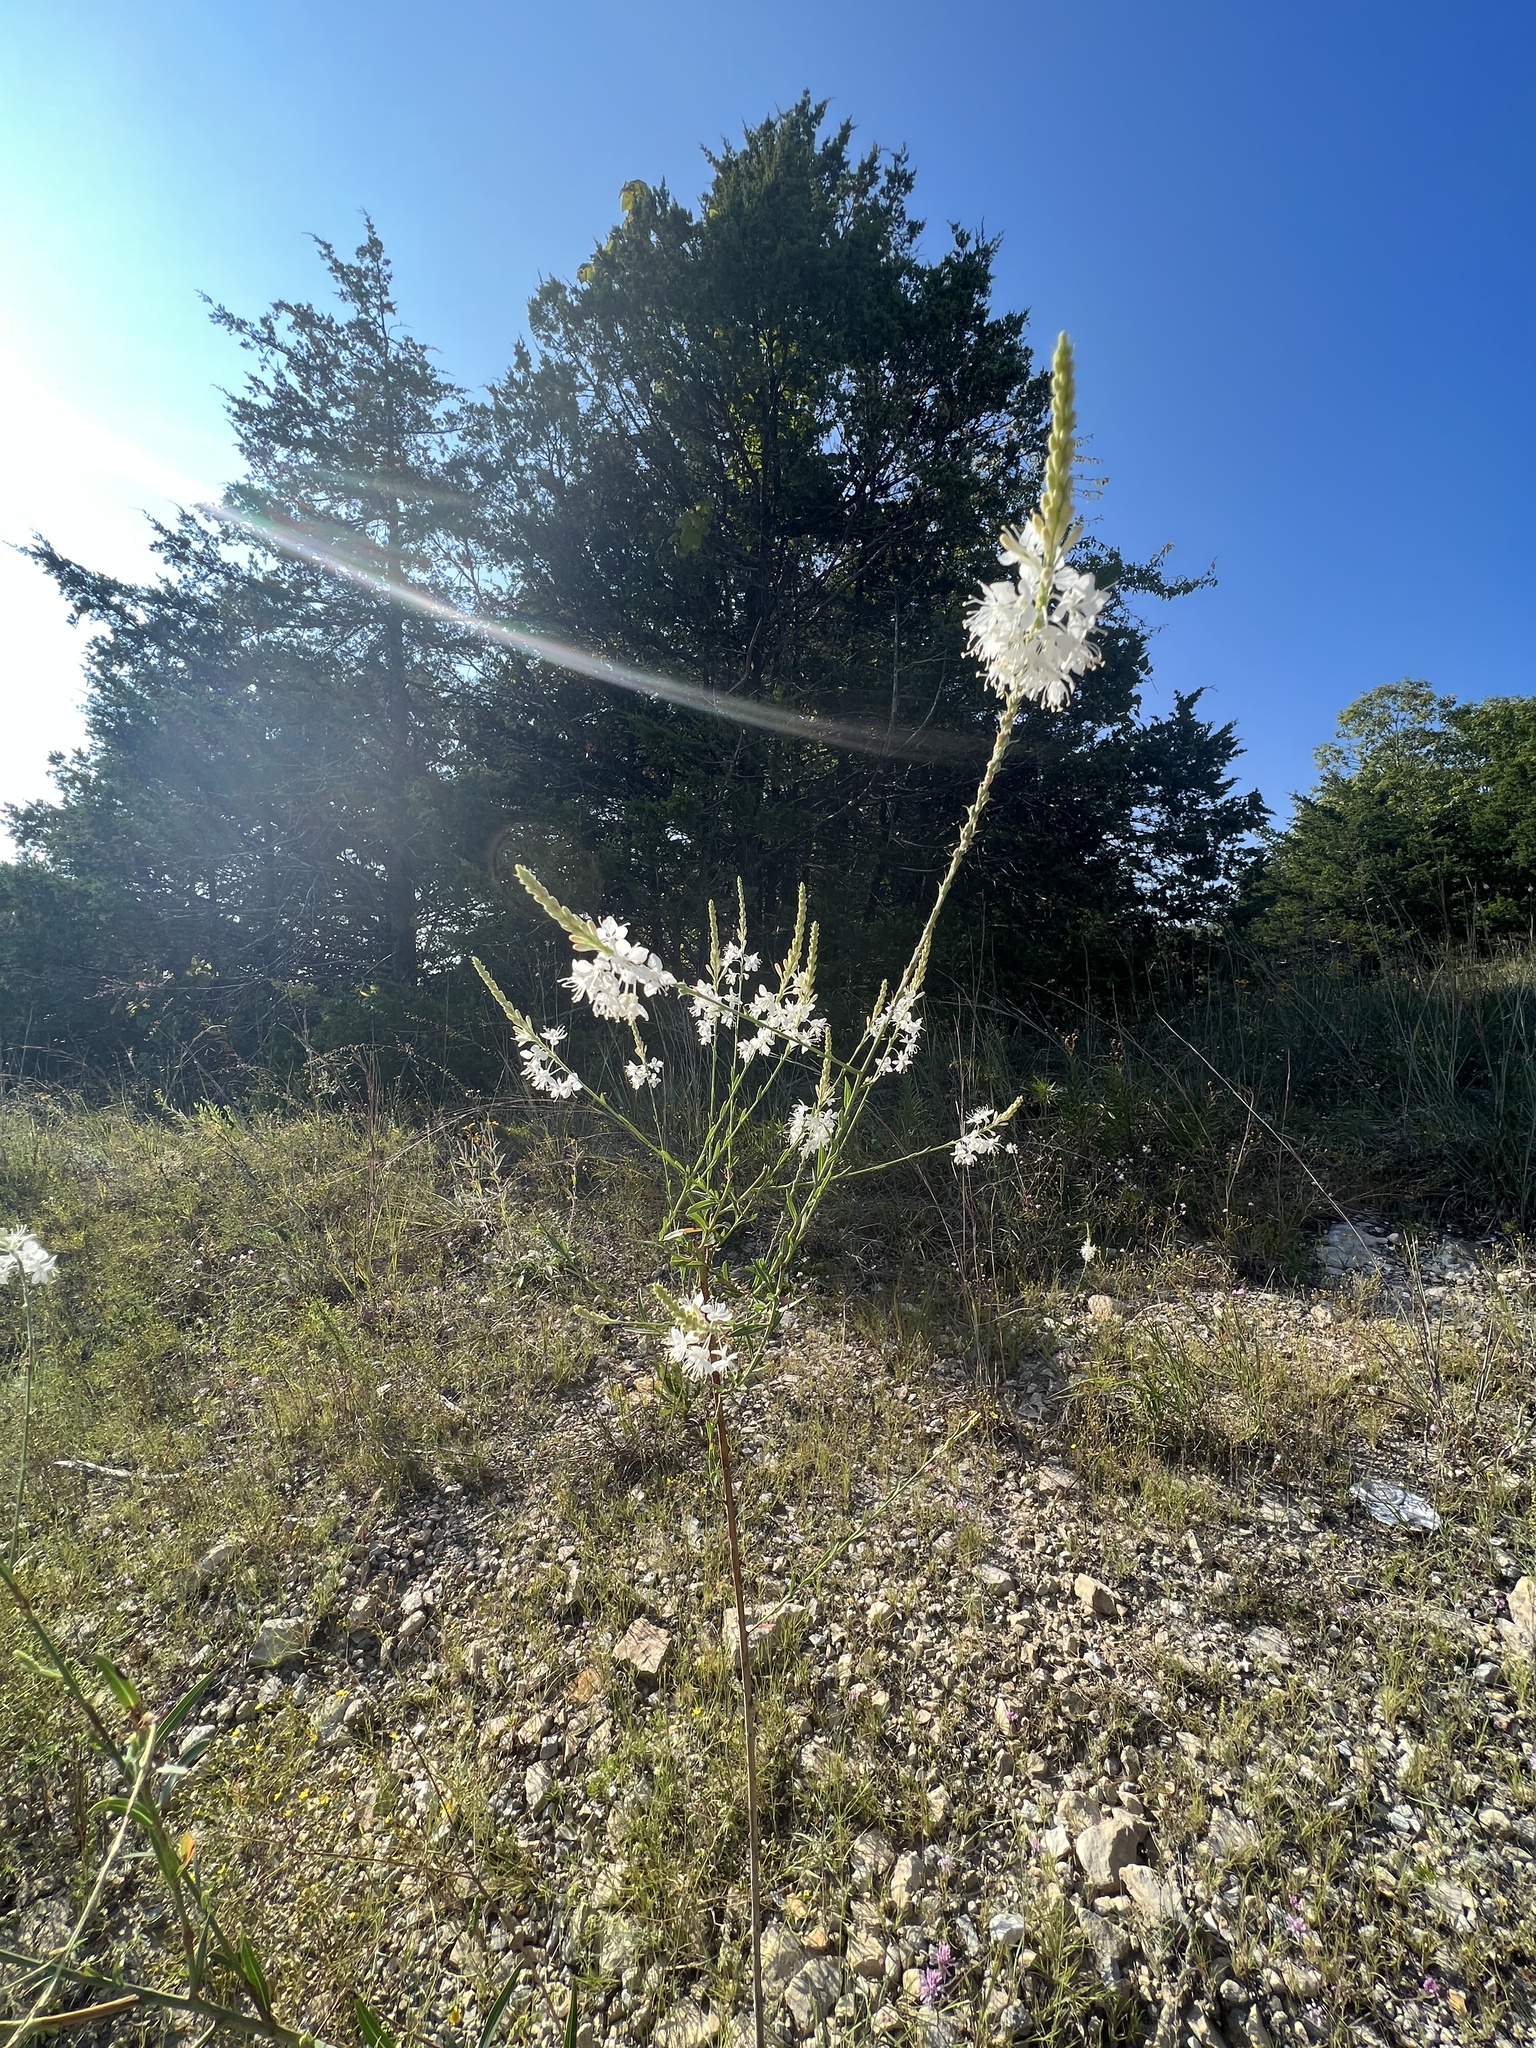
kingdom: Plantae
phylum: Tracheophyta
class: Magnoliopsida
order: Myrtales
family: Onagraceae
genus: Oenothera
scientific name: Oenothera glaucifolia
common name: False gaura
